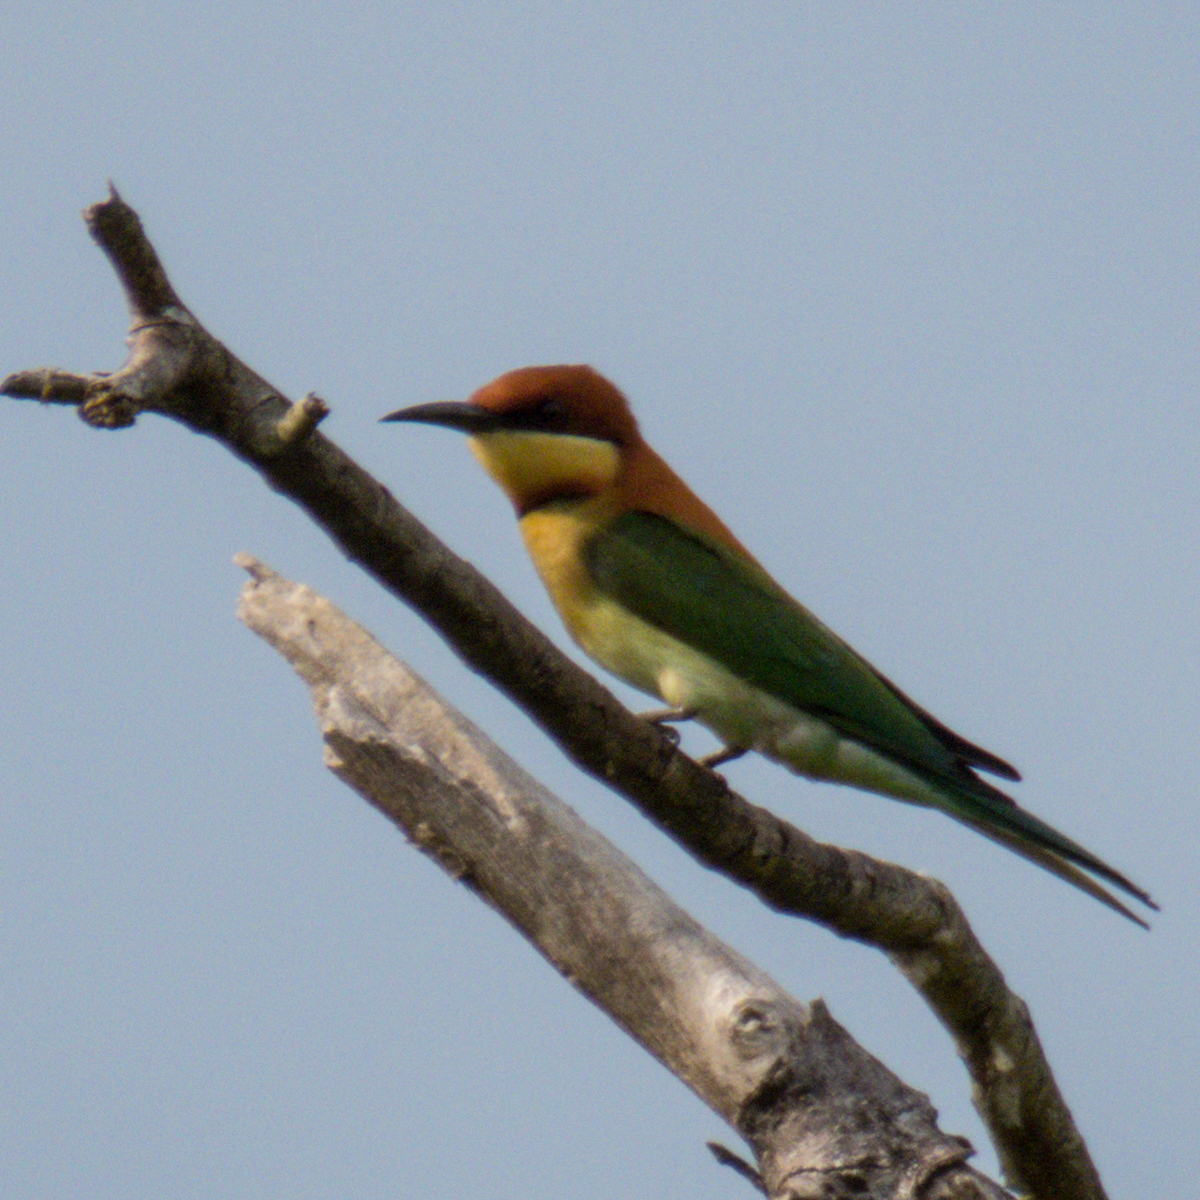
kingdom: Animalia
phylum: Chordata
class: Aves
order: Coraciiformes
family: Meropidae
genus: Merops
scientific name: Merops leschenaulti
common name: Chestnut-headed bee-eater
